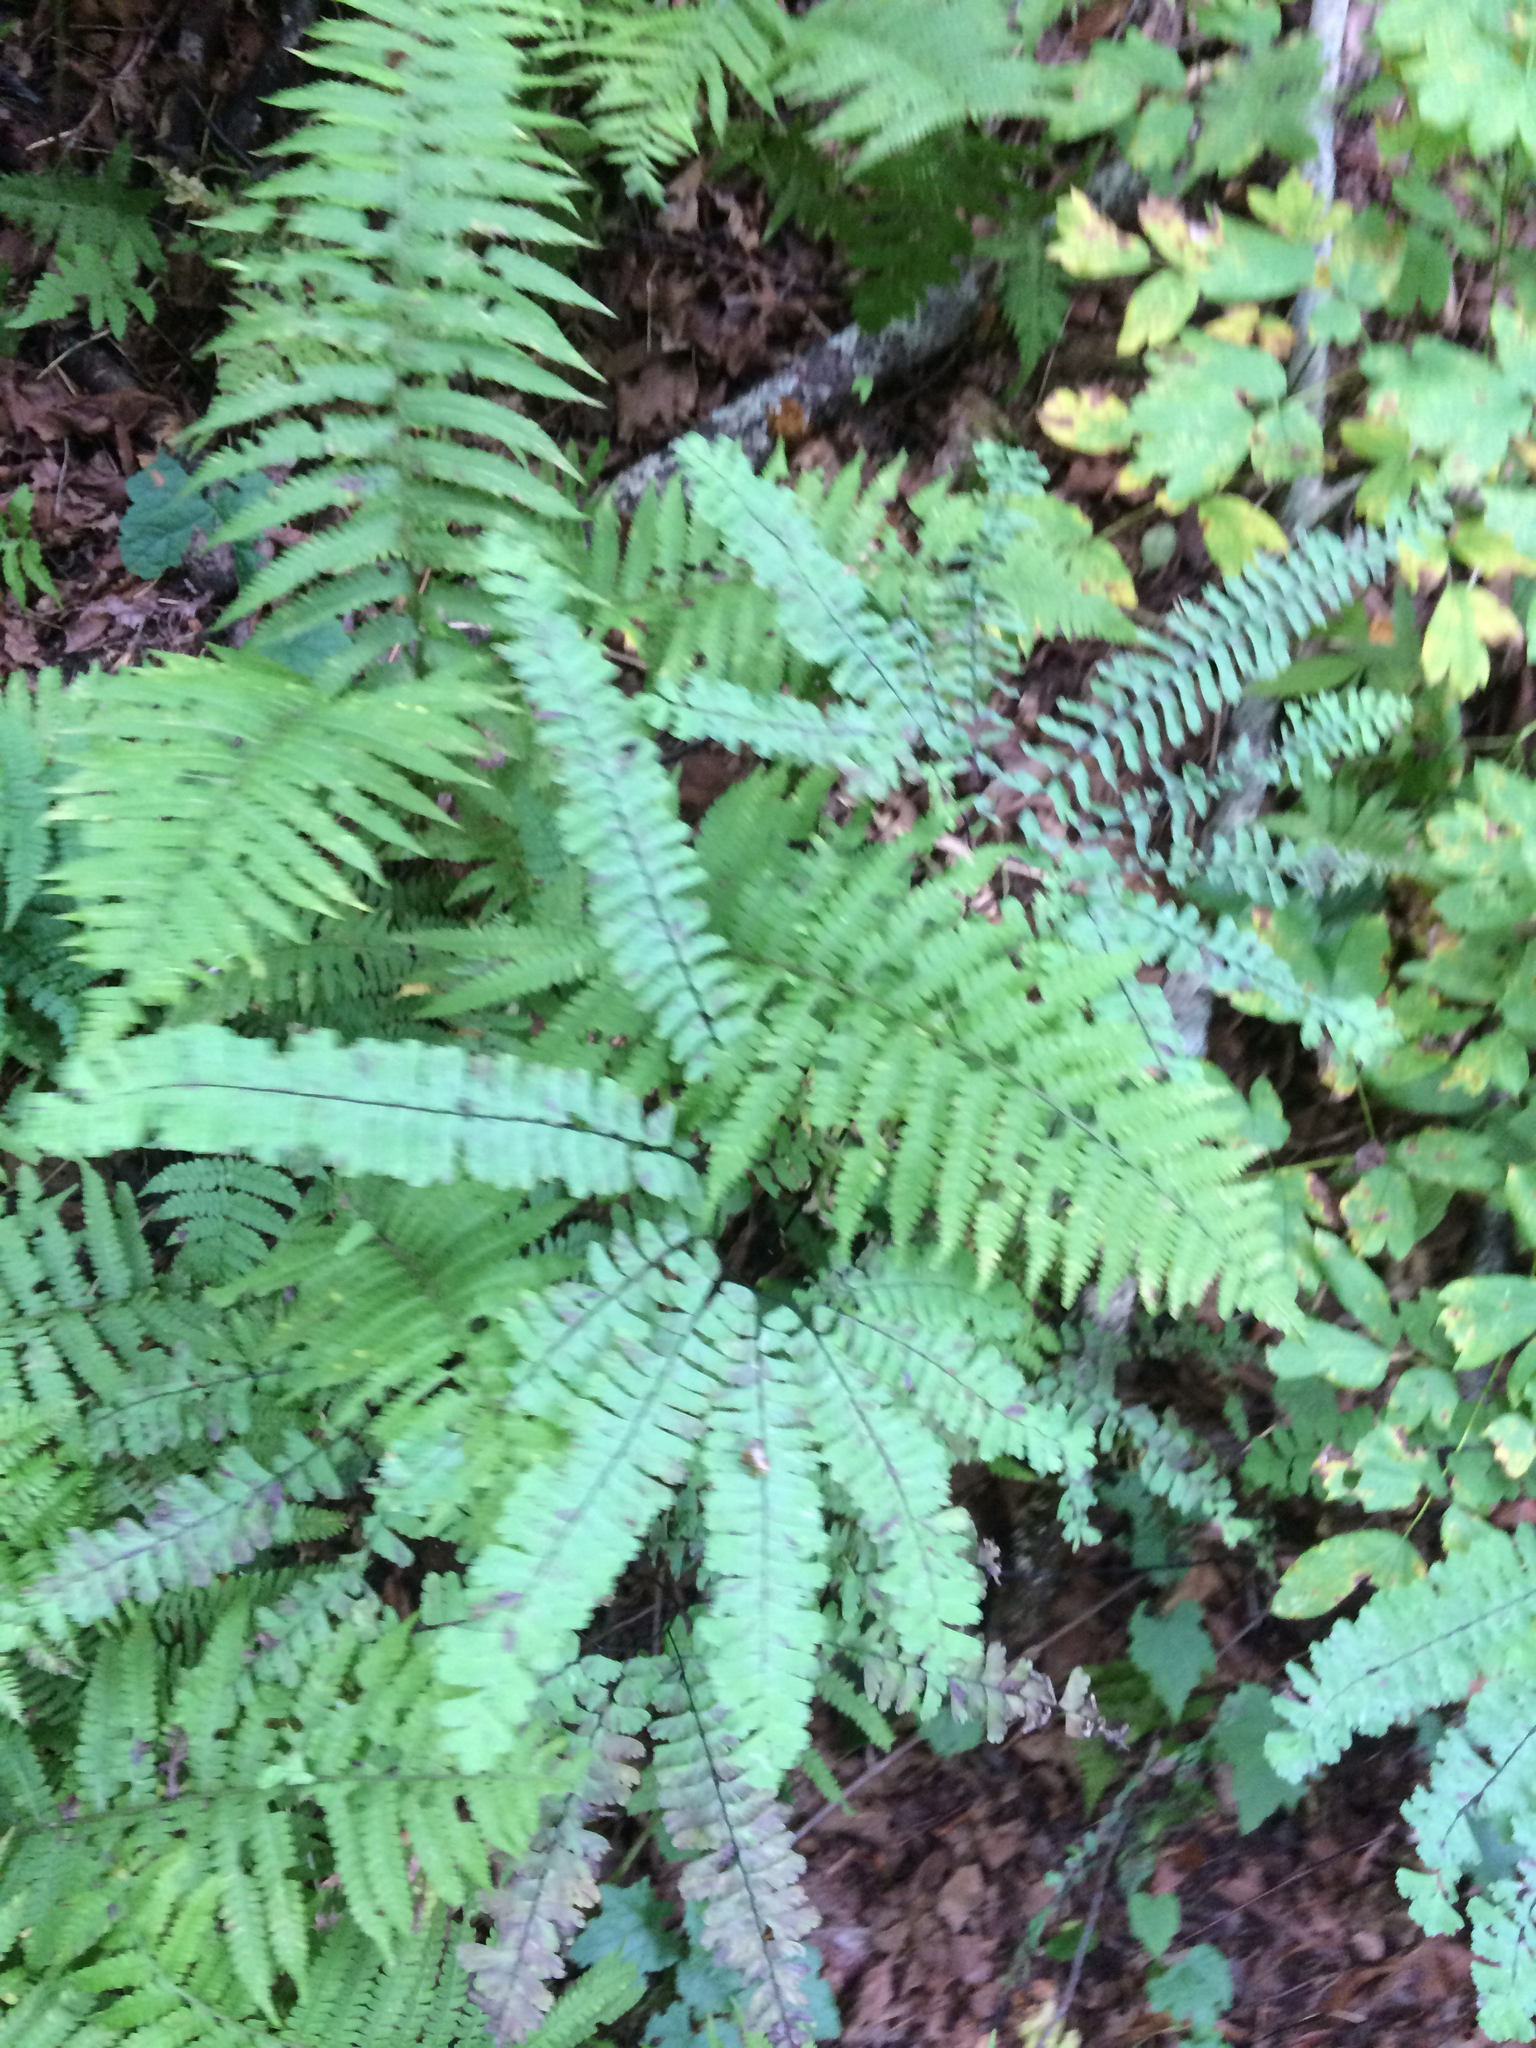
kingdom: Plantae
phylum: Tracheophyta
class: Polypodiopsida
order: Polypodiales
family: Pteridaceae
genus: Adiantum
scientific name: Adiantum pedatum
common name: Five-finger fern
